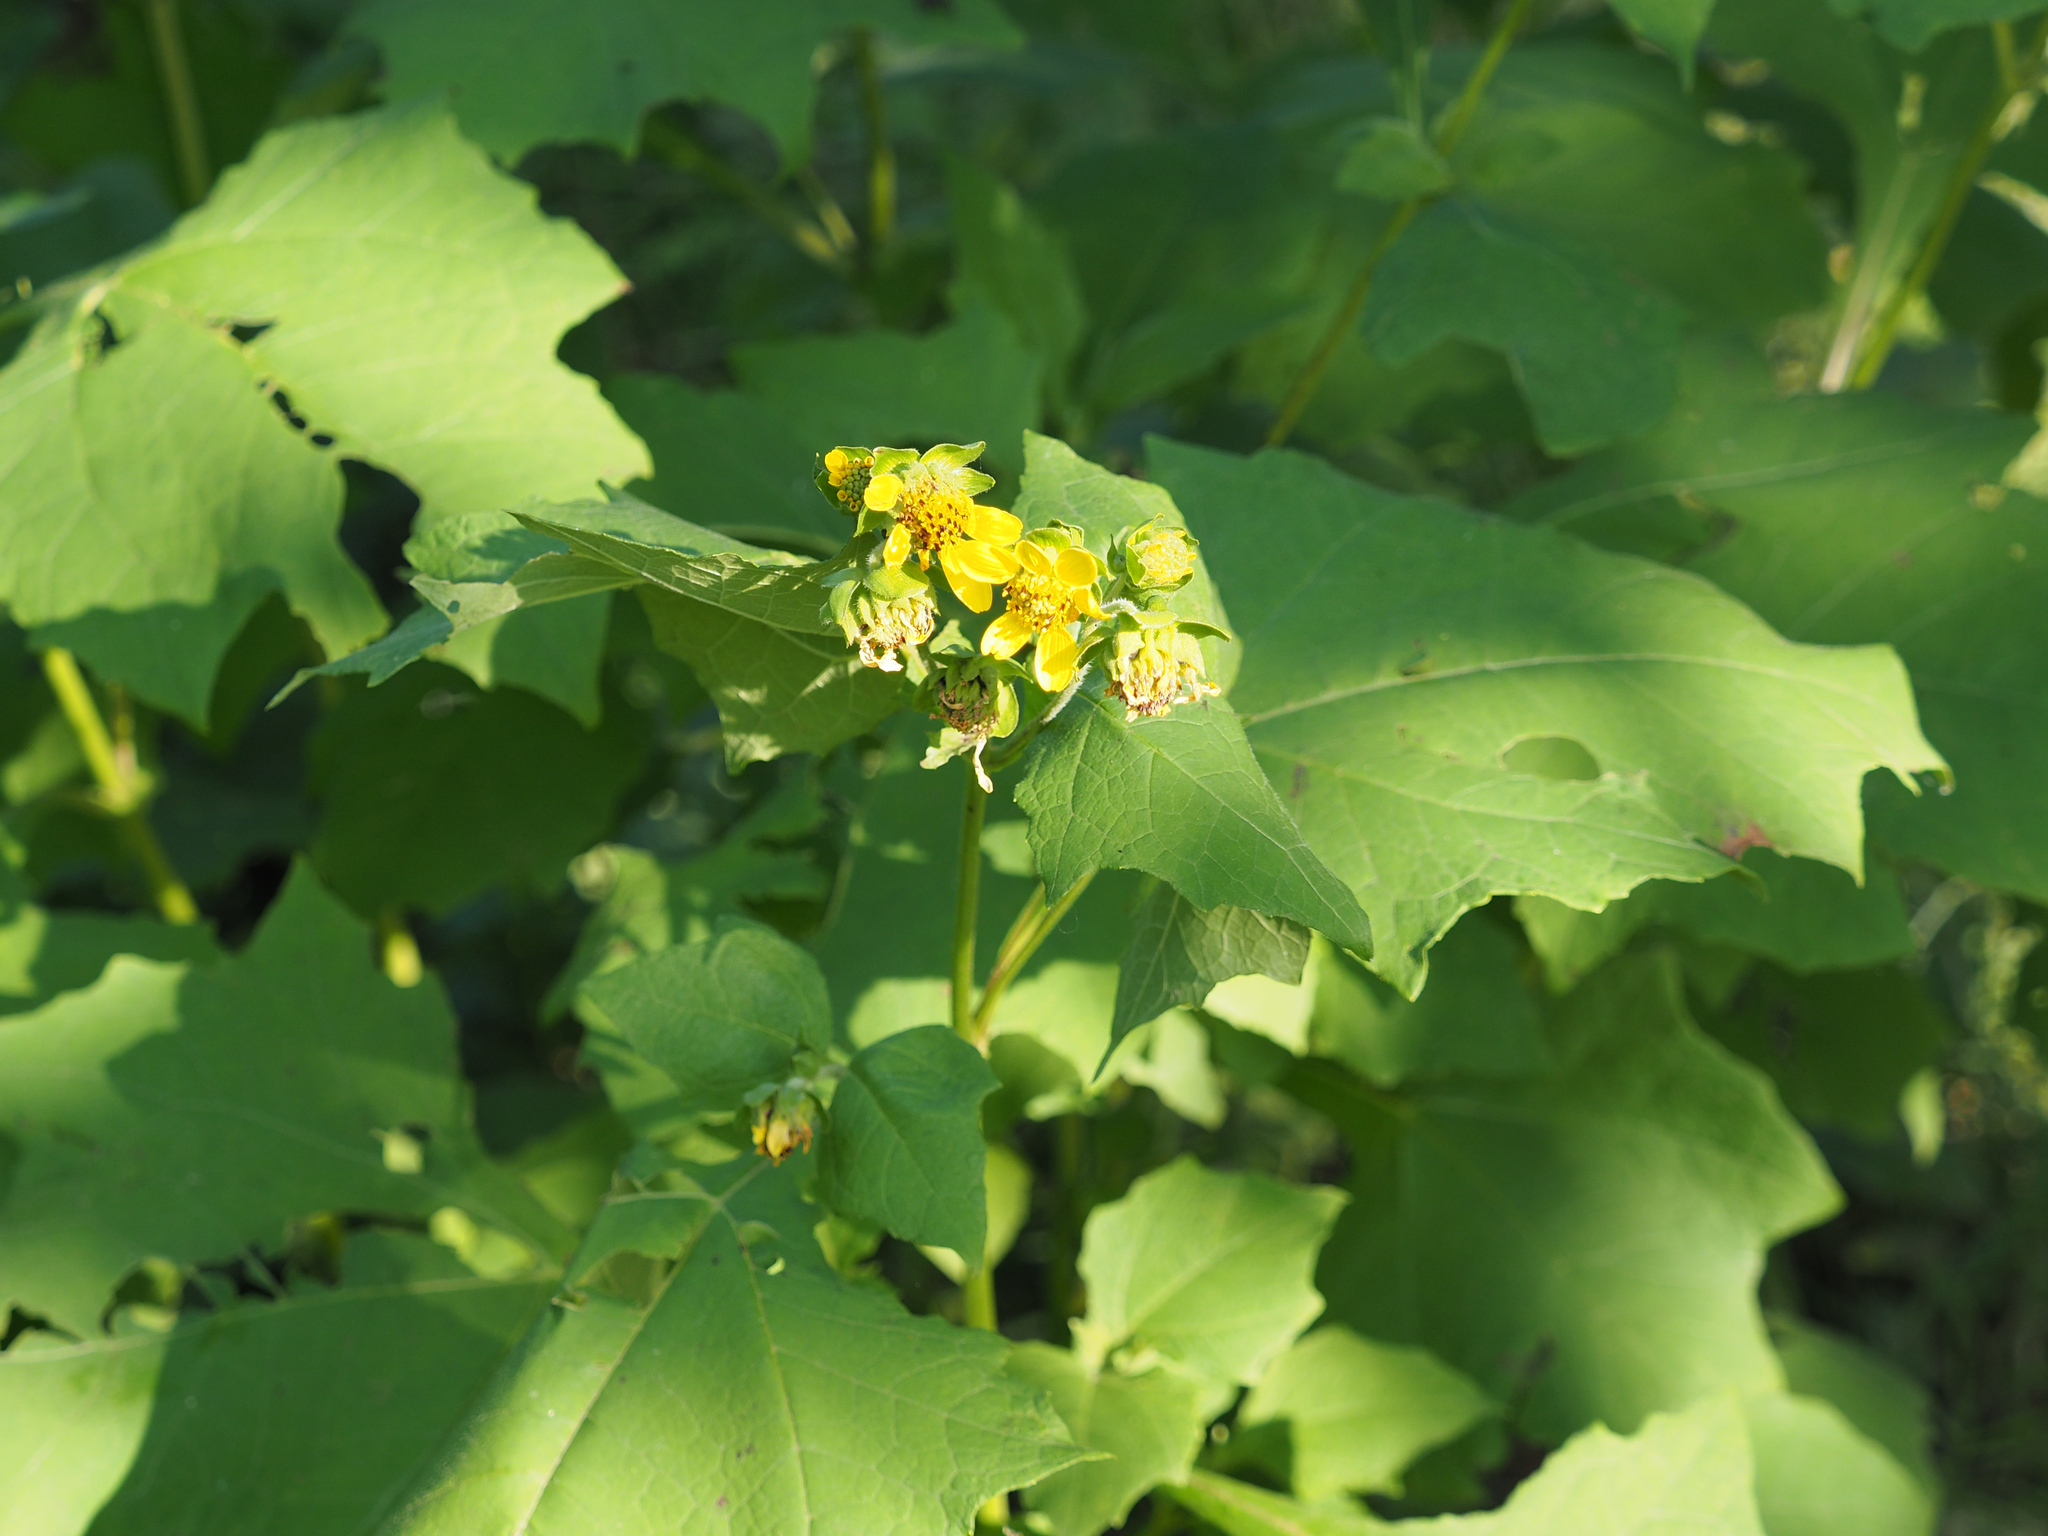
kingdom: Plantae
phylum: Tracheophyta
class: Magnoliopsida
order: Asterales
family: Asteraceae
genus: Smallanthus
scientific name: Smallanthus uvedalia
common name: Bear's-foot
